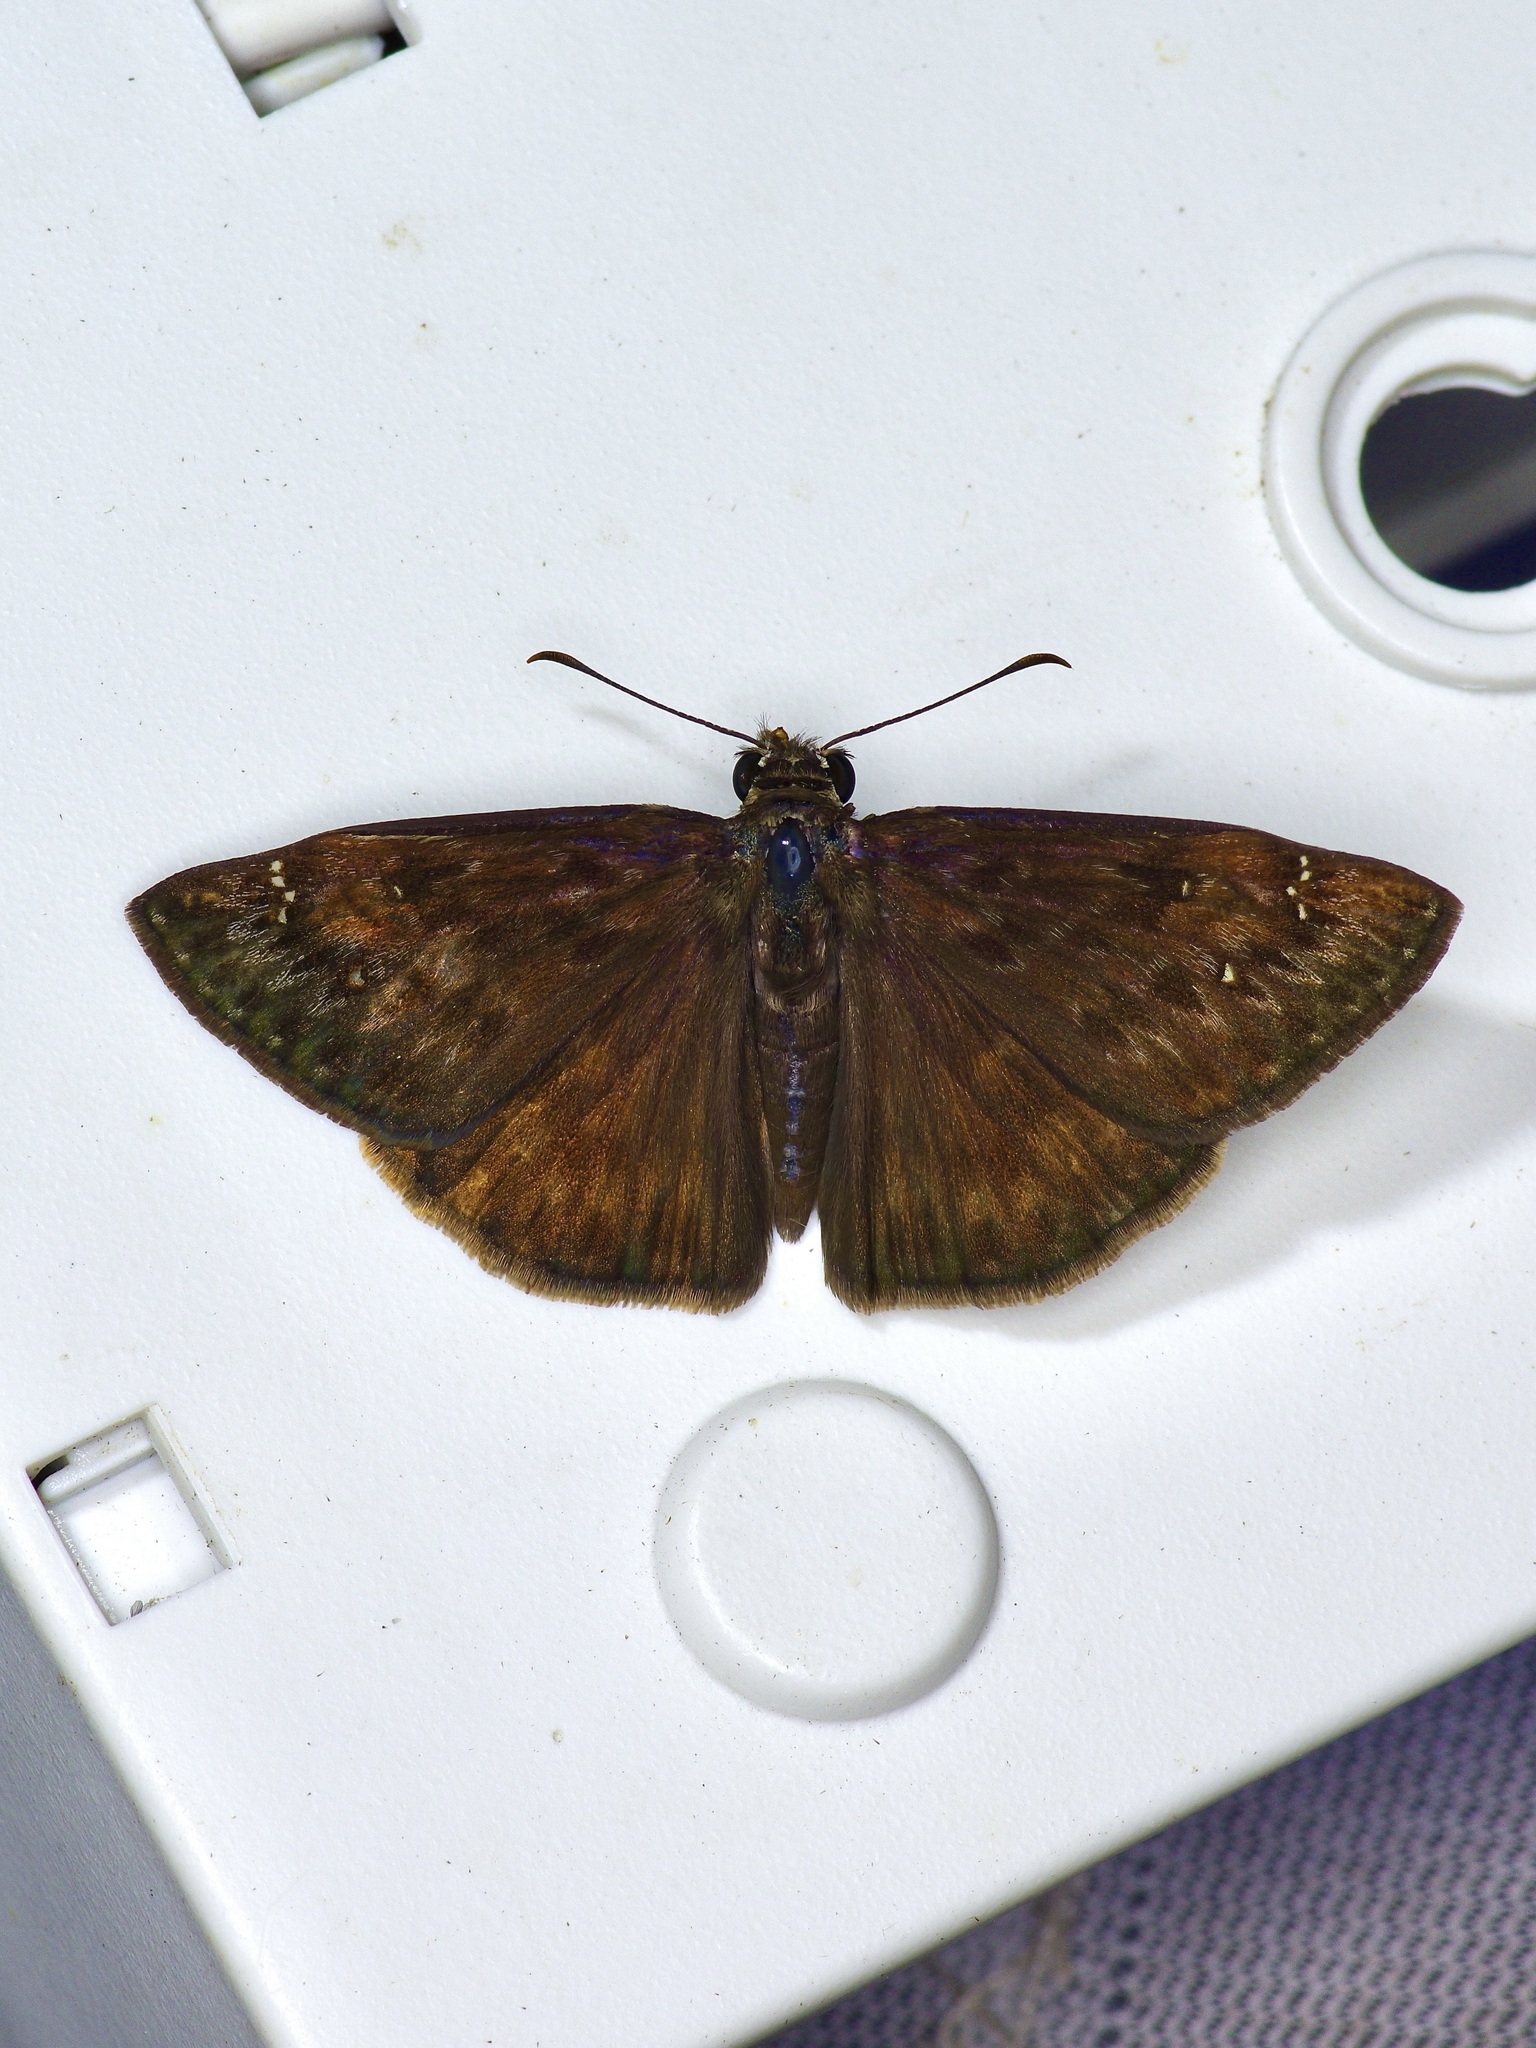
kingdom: Animalia
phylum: Arthropoda
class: Insecta
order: Lepidoptera
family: Hesperiidae
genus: Erynnis
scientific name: Erynnis horatius
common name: Horace's duskywing
